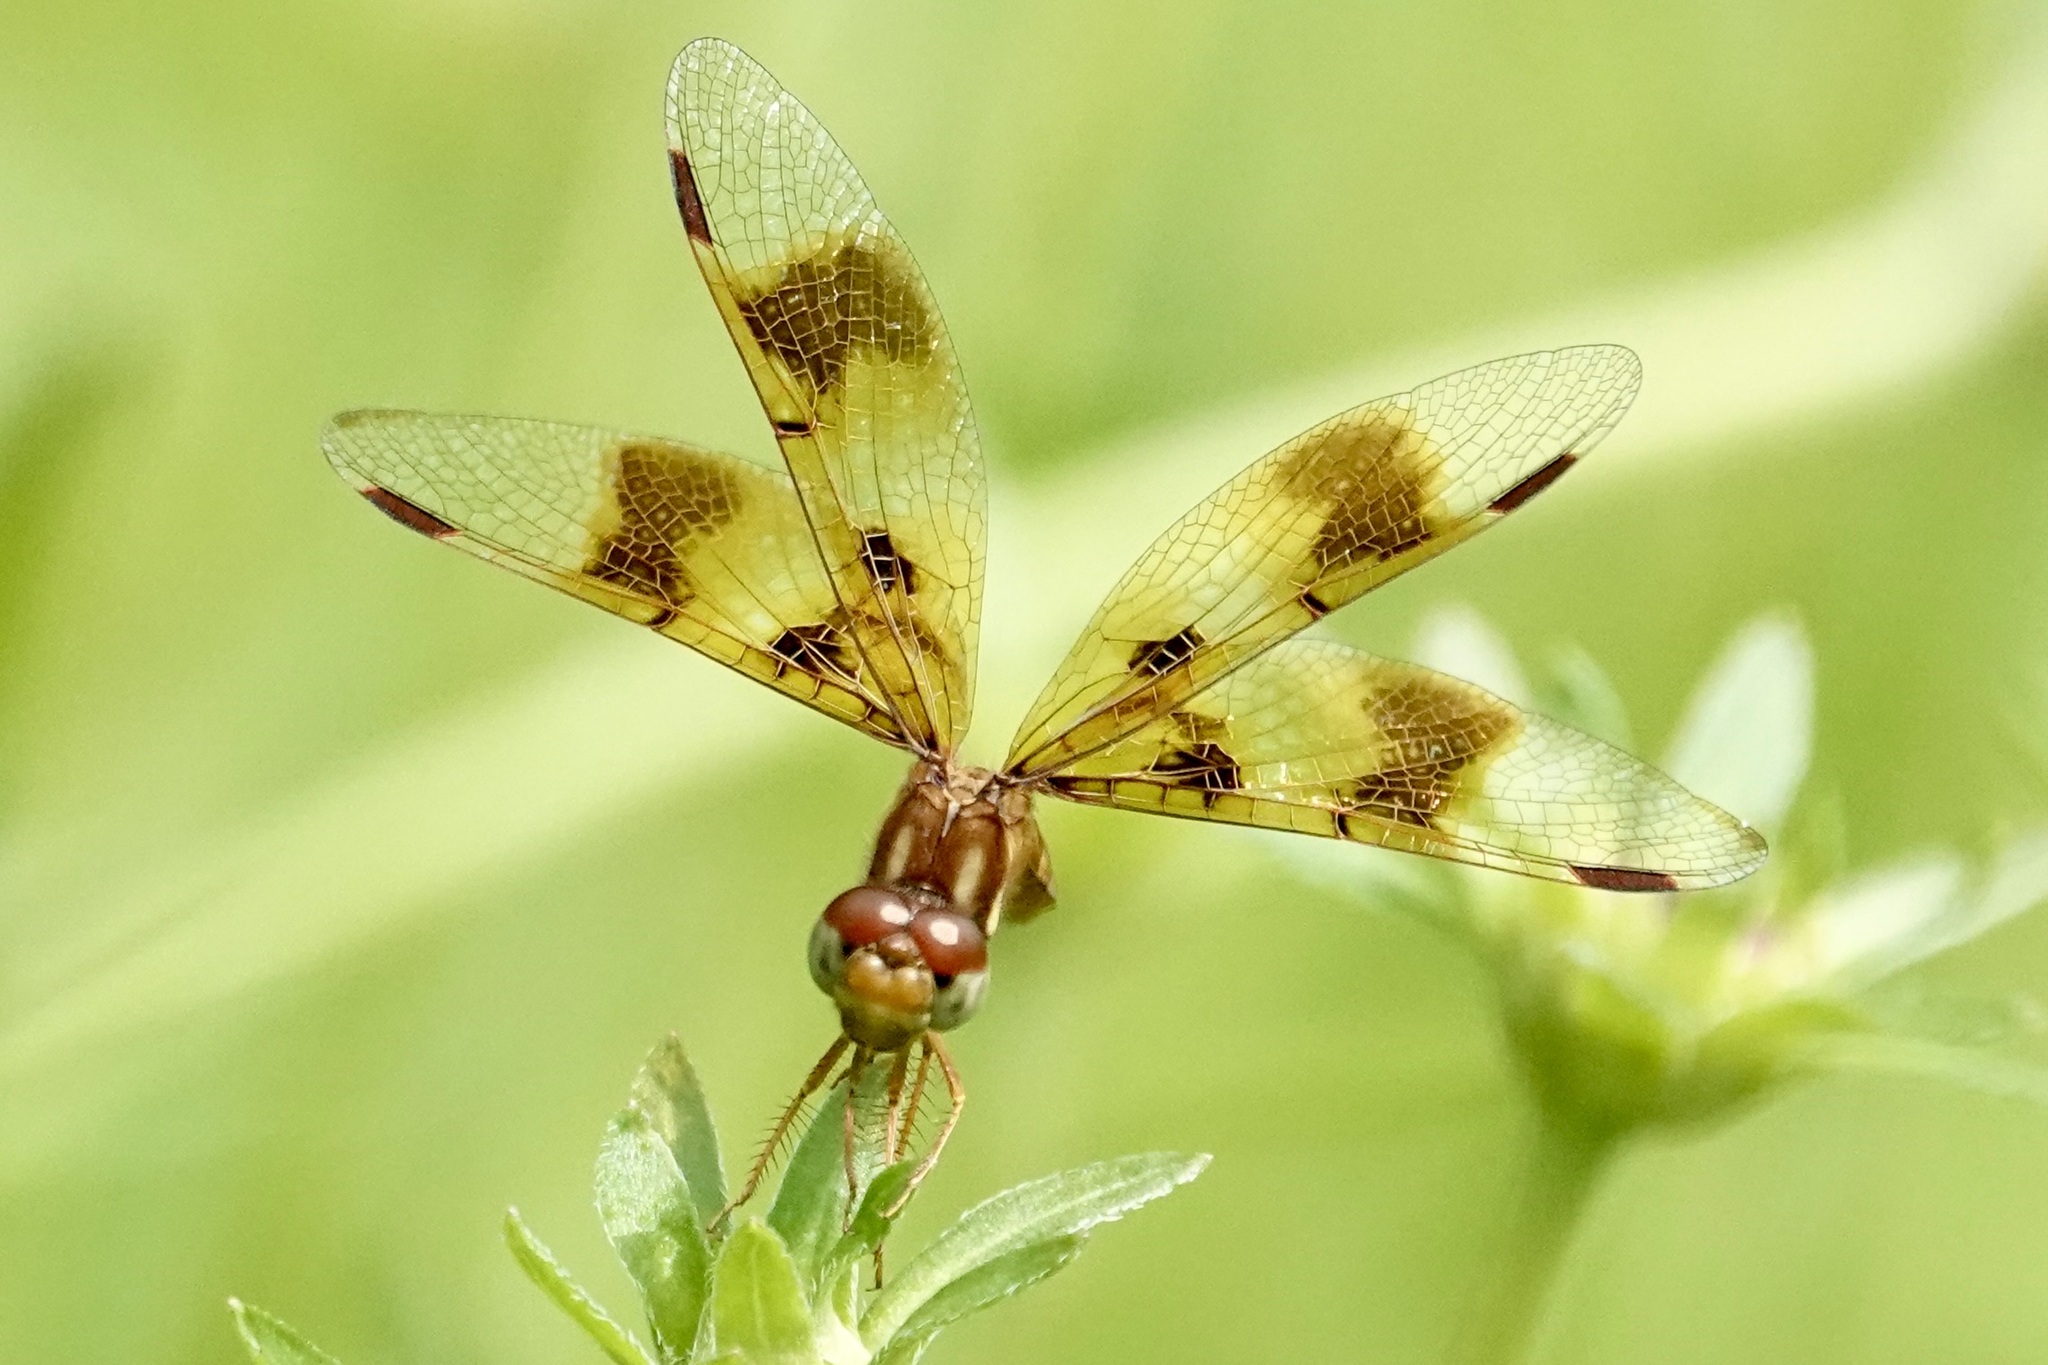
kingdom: Animalia
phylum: Arthropoda
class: Insecta
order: Odonata
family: Libellulidae
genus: Perithemis
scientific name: Perithemis tenera
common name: Eastern amberwing
